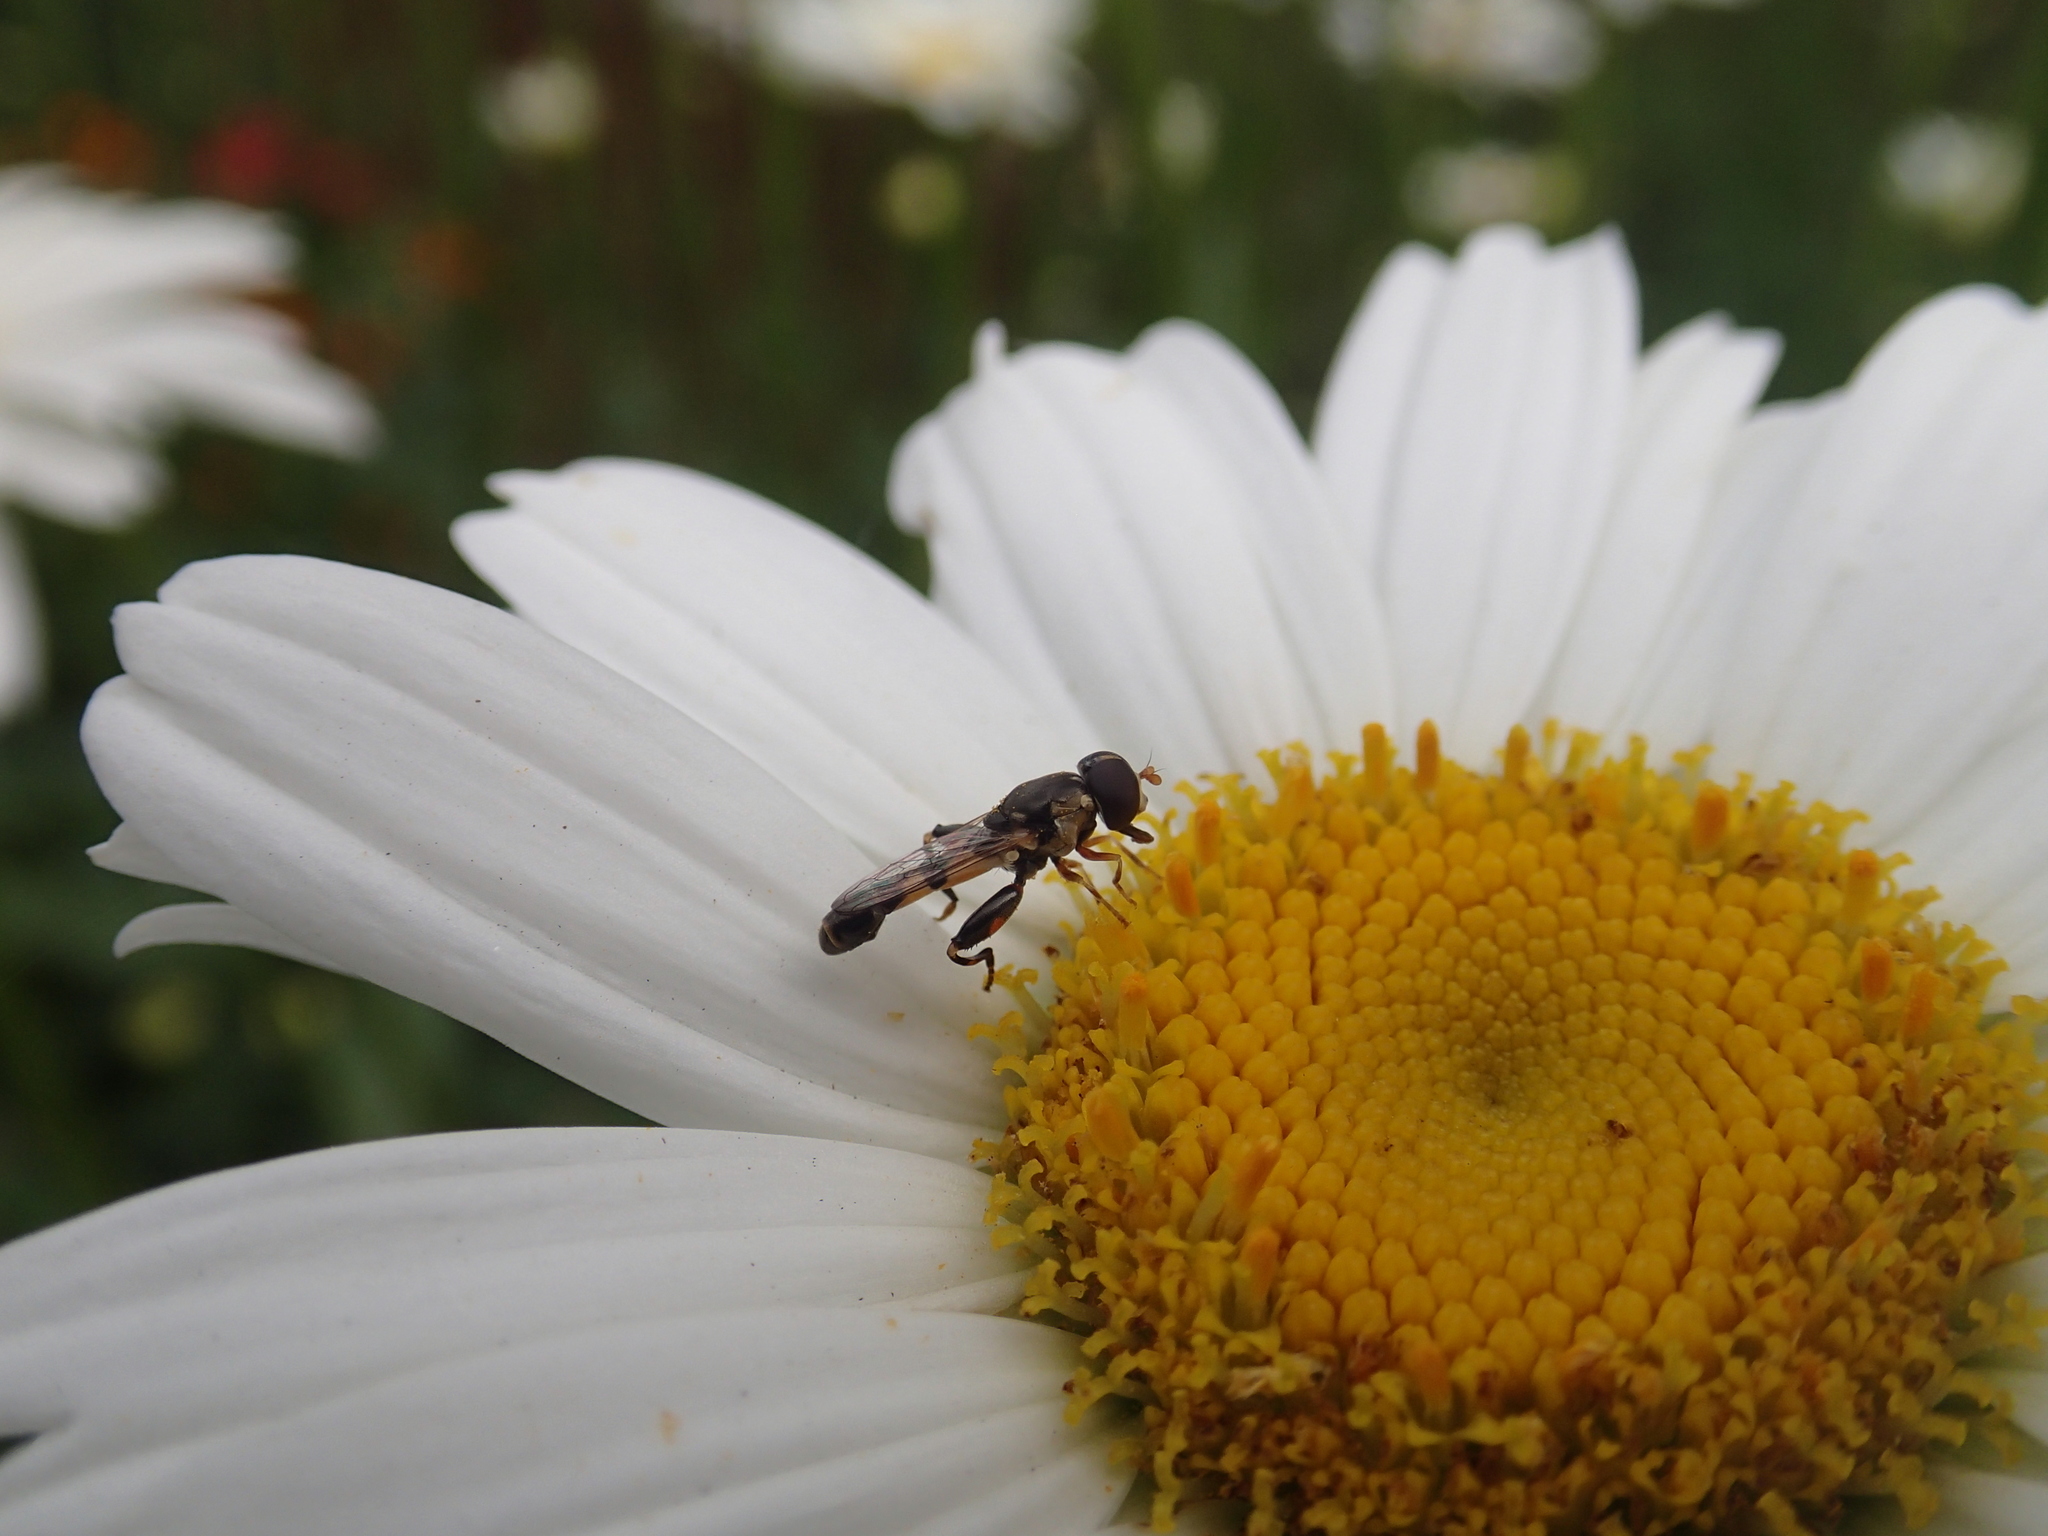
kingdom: Animalia
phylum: Arthropoda
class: Insecta
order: Diptera
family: Syrphidae
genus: Syritta
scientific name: Syritta pipiens
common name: Hover fly
